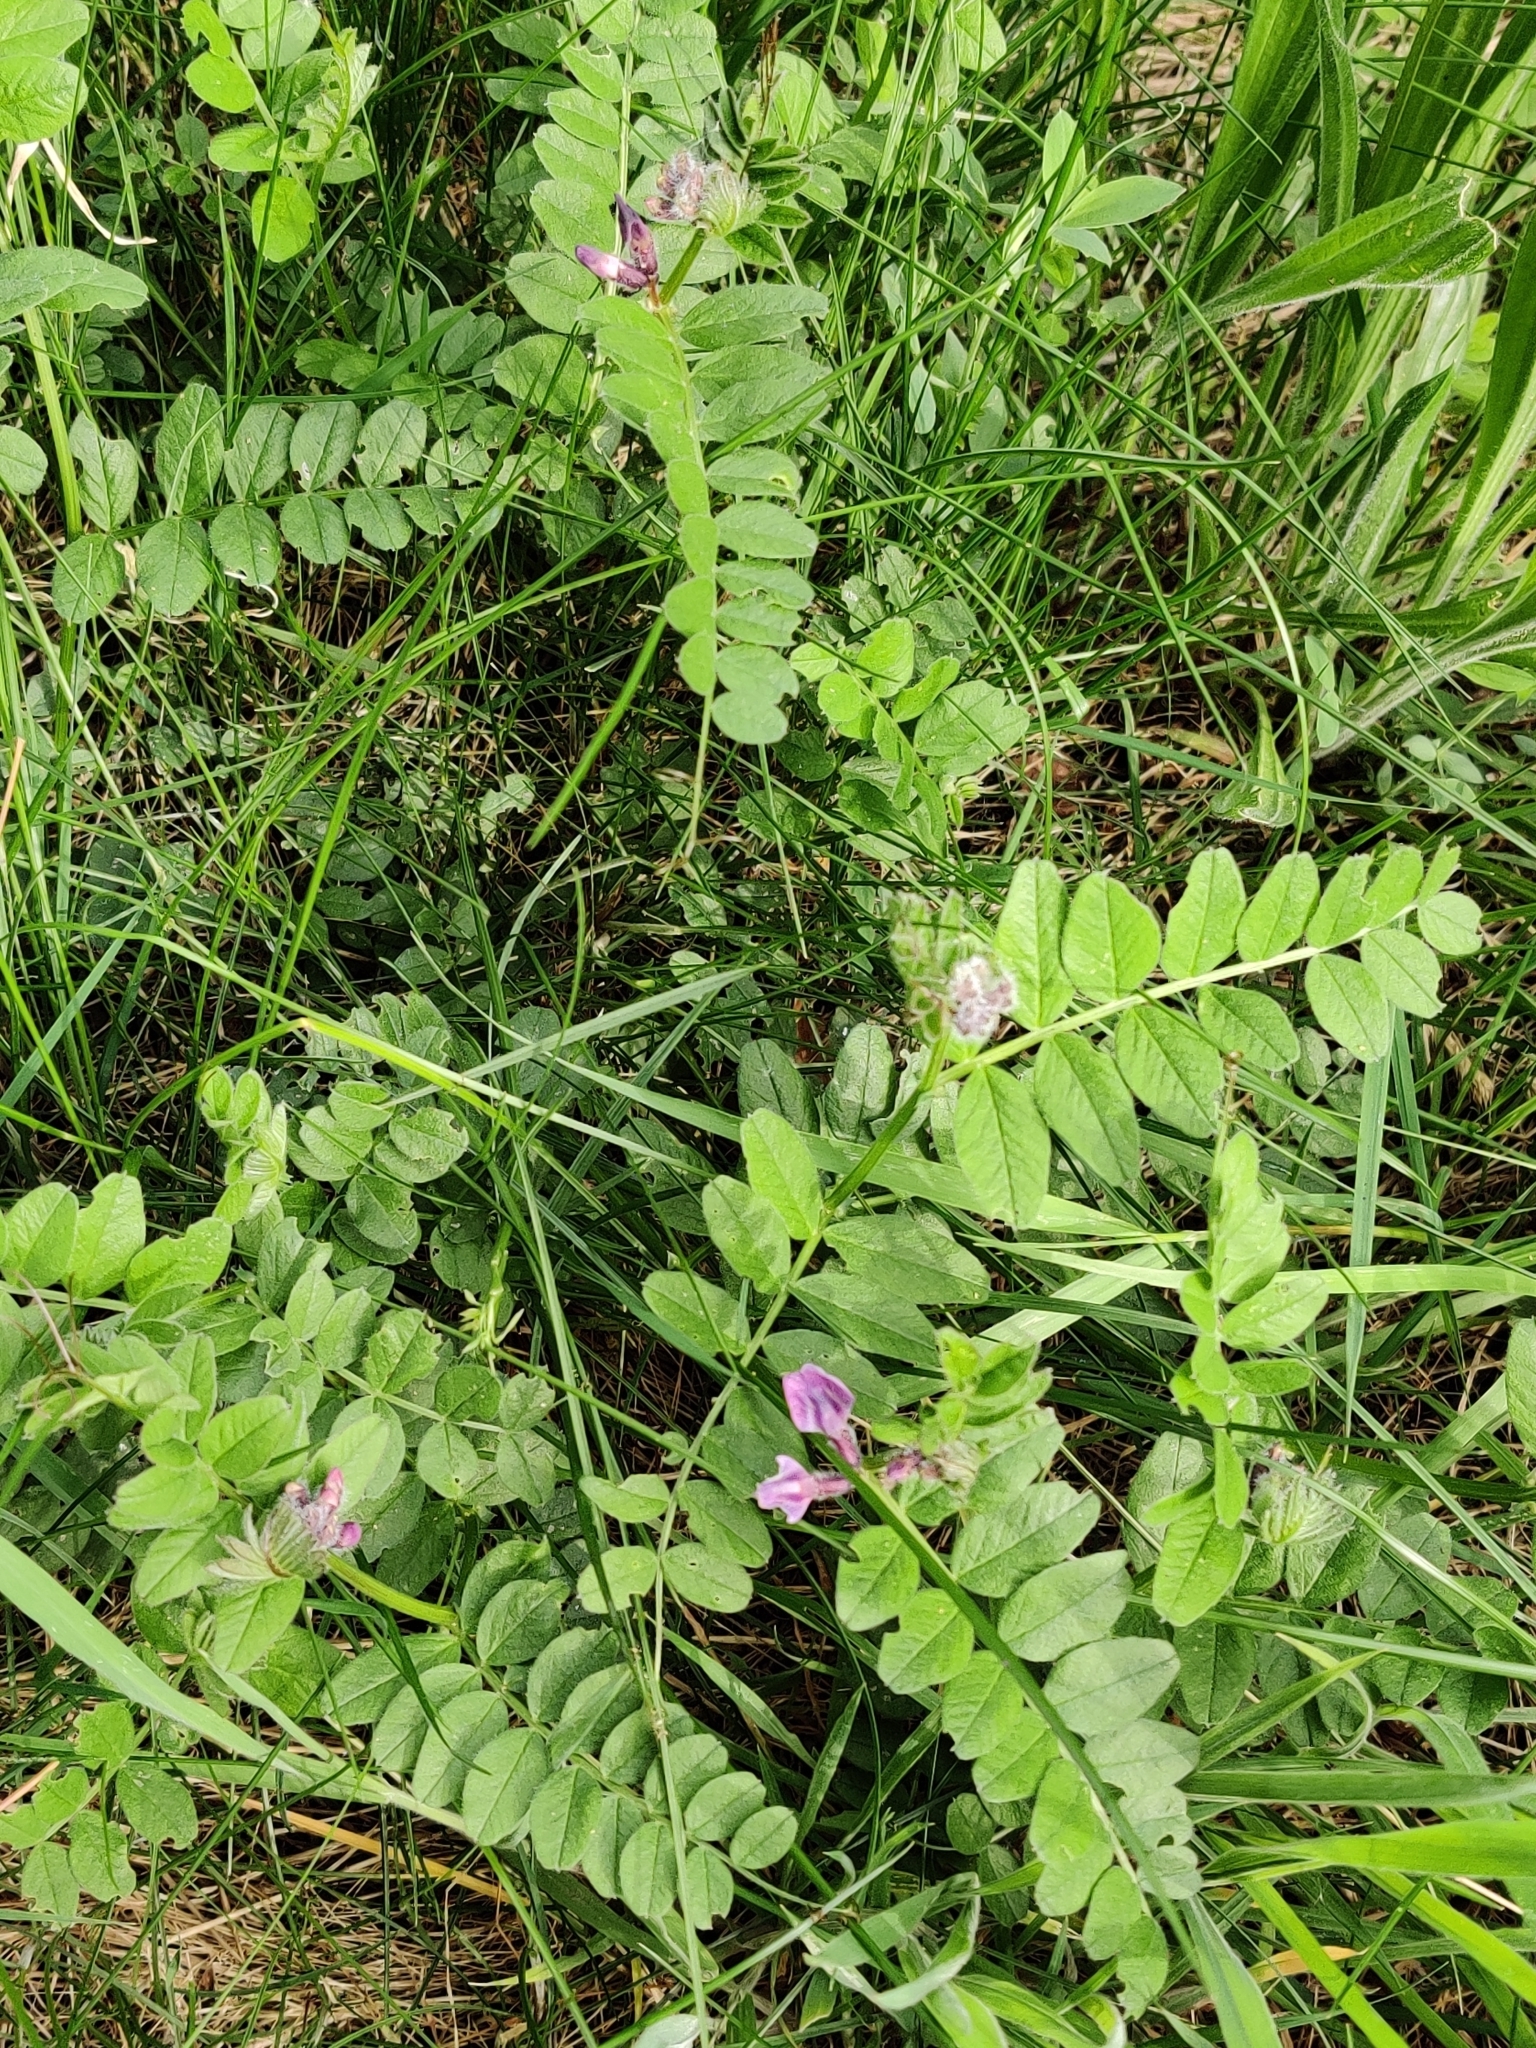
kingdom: Plantae
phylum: Tracheophyta
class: Magnoliopsida
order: Fabales
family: Fabaceae
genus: Vicia
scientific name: Vicia sepium
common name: Bush vetch
